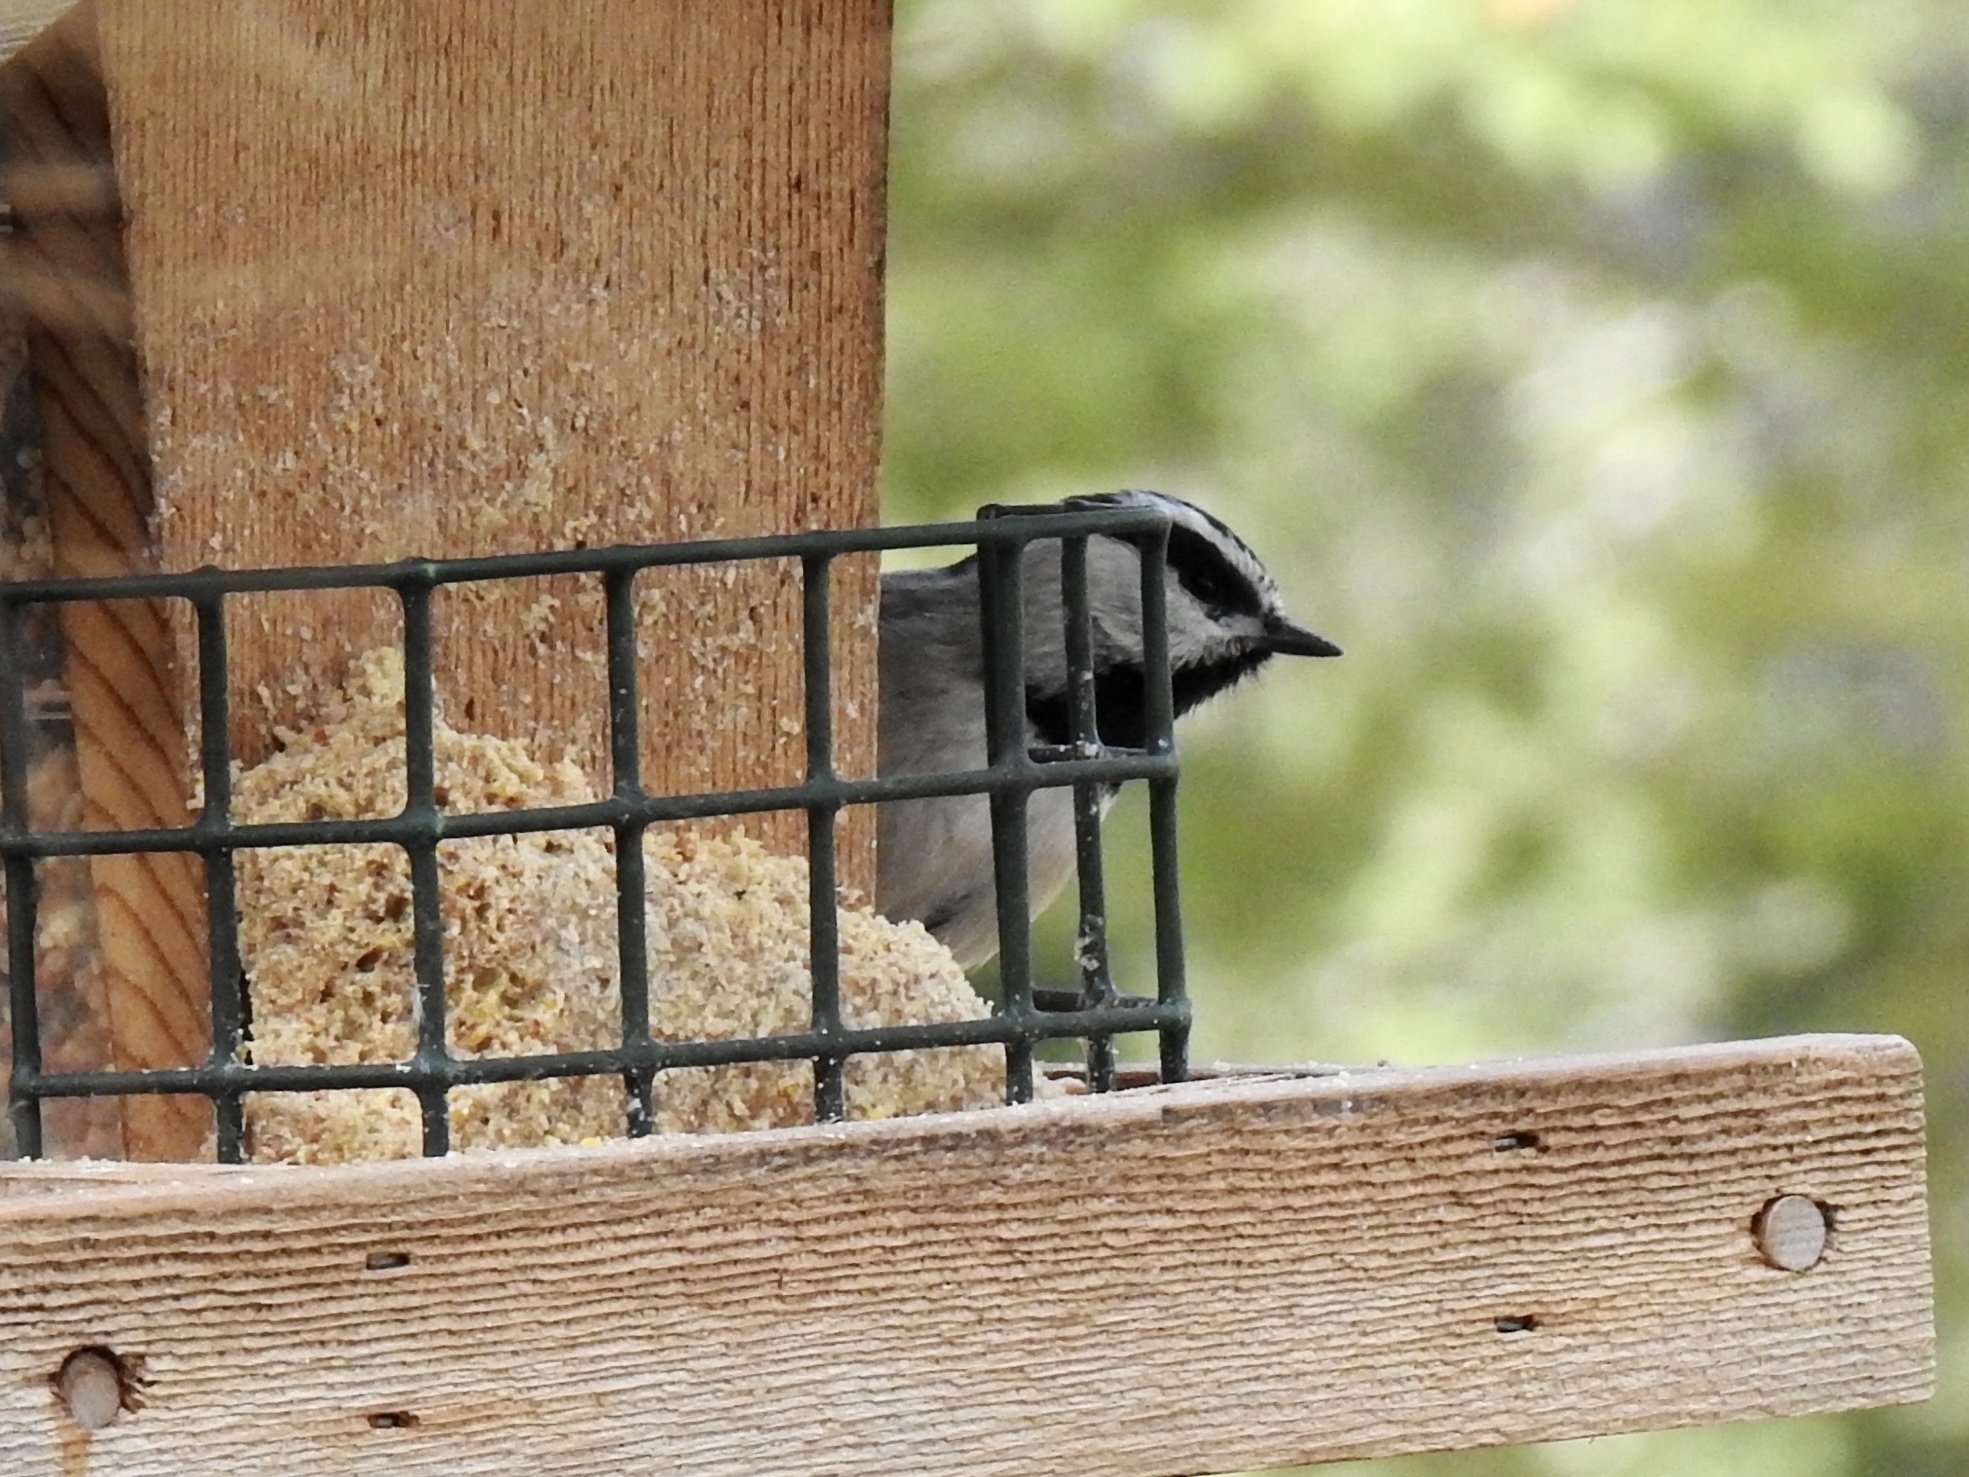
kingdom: Animalia
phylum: Chordata
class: Aves
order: Passeriformes
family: Paridae
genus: Poecile
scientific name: Poecile gambeli
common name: Mountain chickadee
